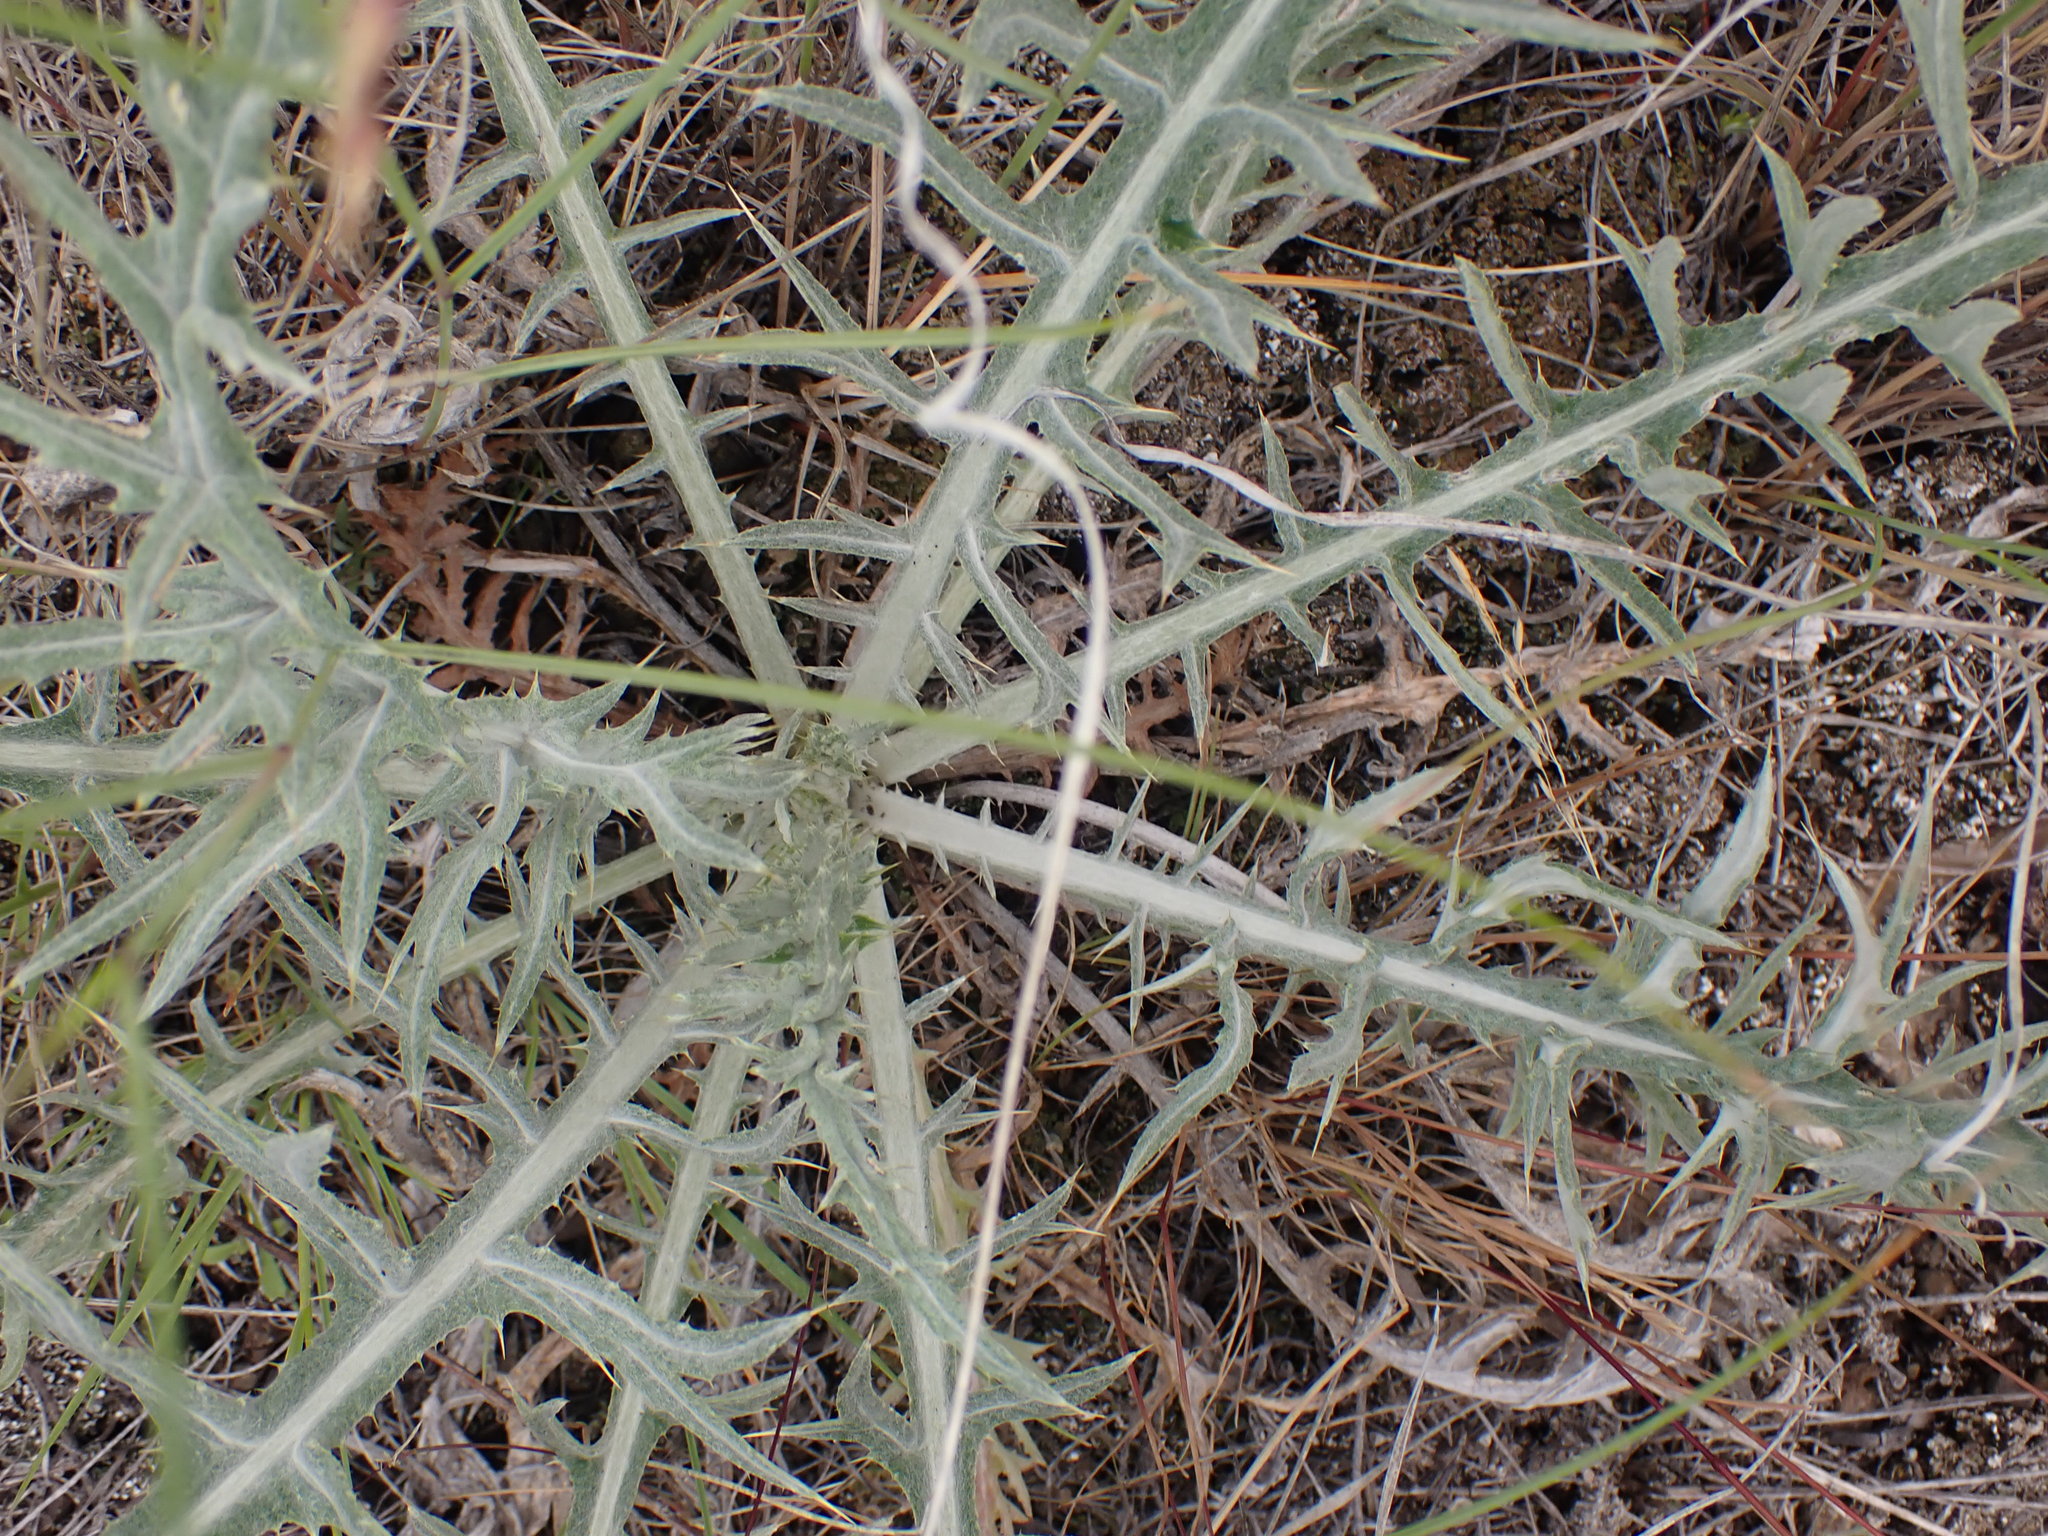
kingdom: Plantae
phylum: Tracheophyta
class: Magnoliopsida
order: Asterales
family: Asteraceae
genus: Crepis
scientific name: Crepis atribarba
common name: Dark hawk's-beard
